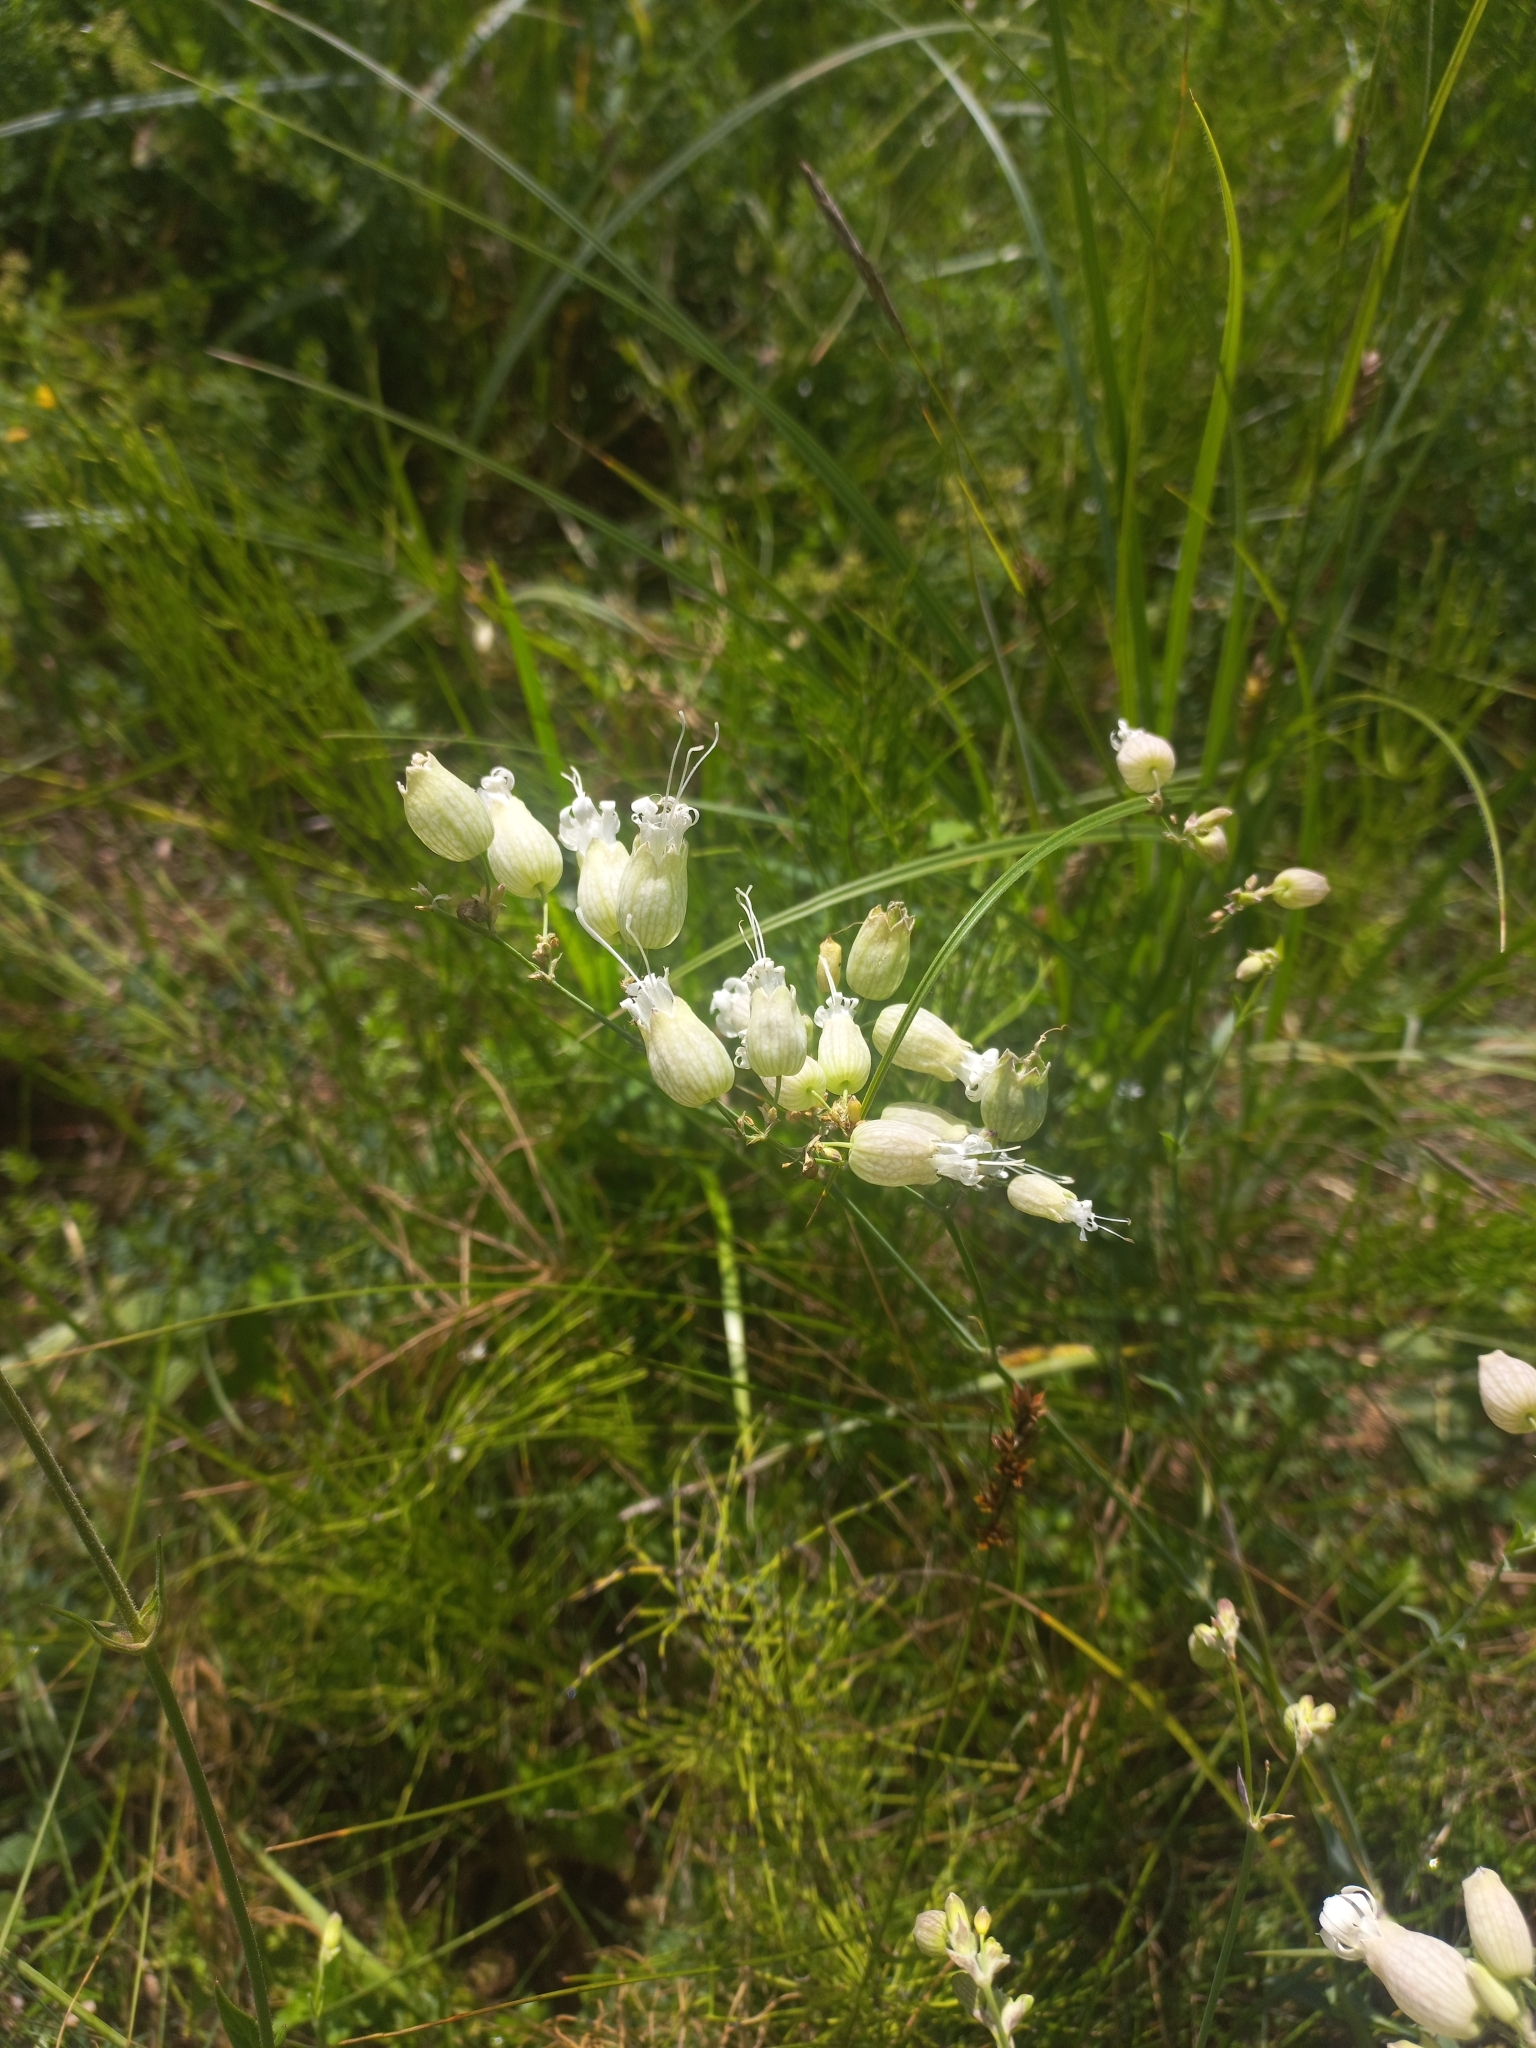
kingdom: Plantae
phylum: Tracheophyta
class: Magnoliopsida
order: Caryophyllales
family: Caryophyllaceae
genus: Silene
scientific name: Silene vulgaris
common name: Bladder campion
